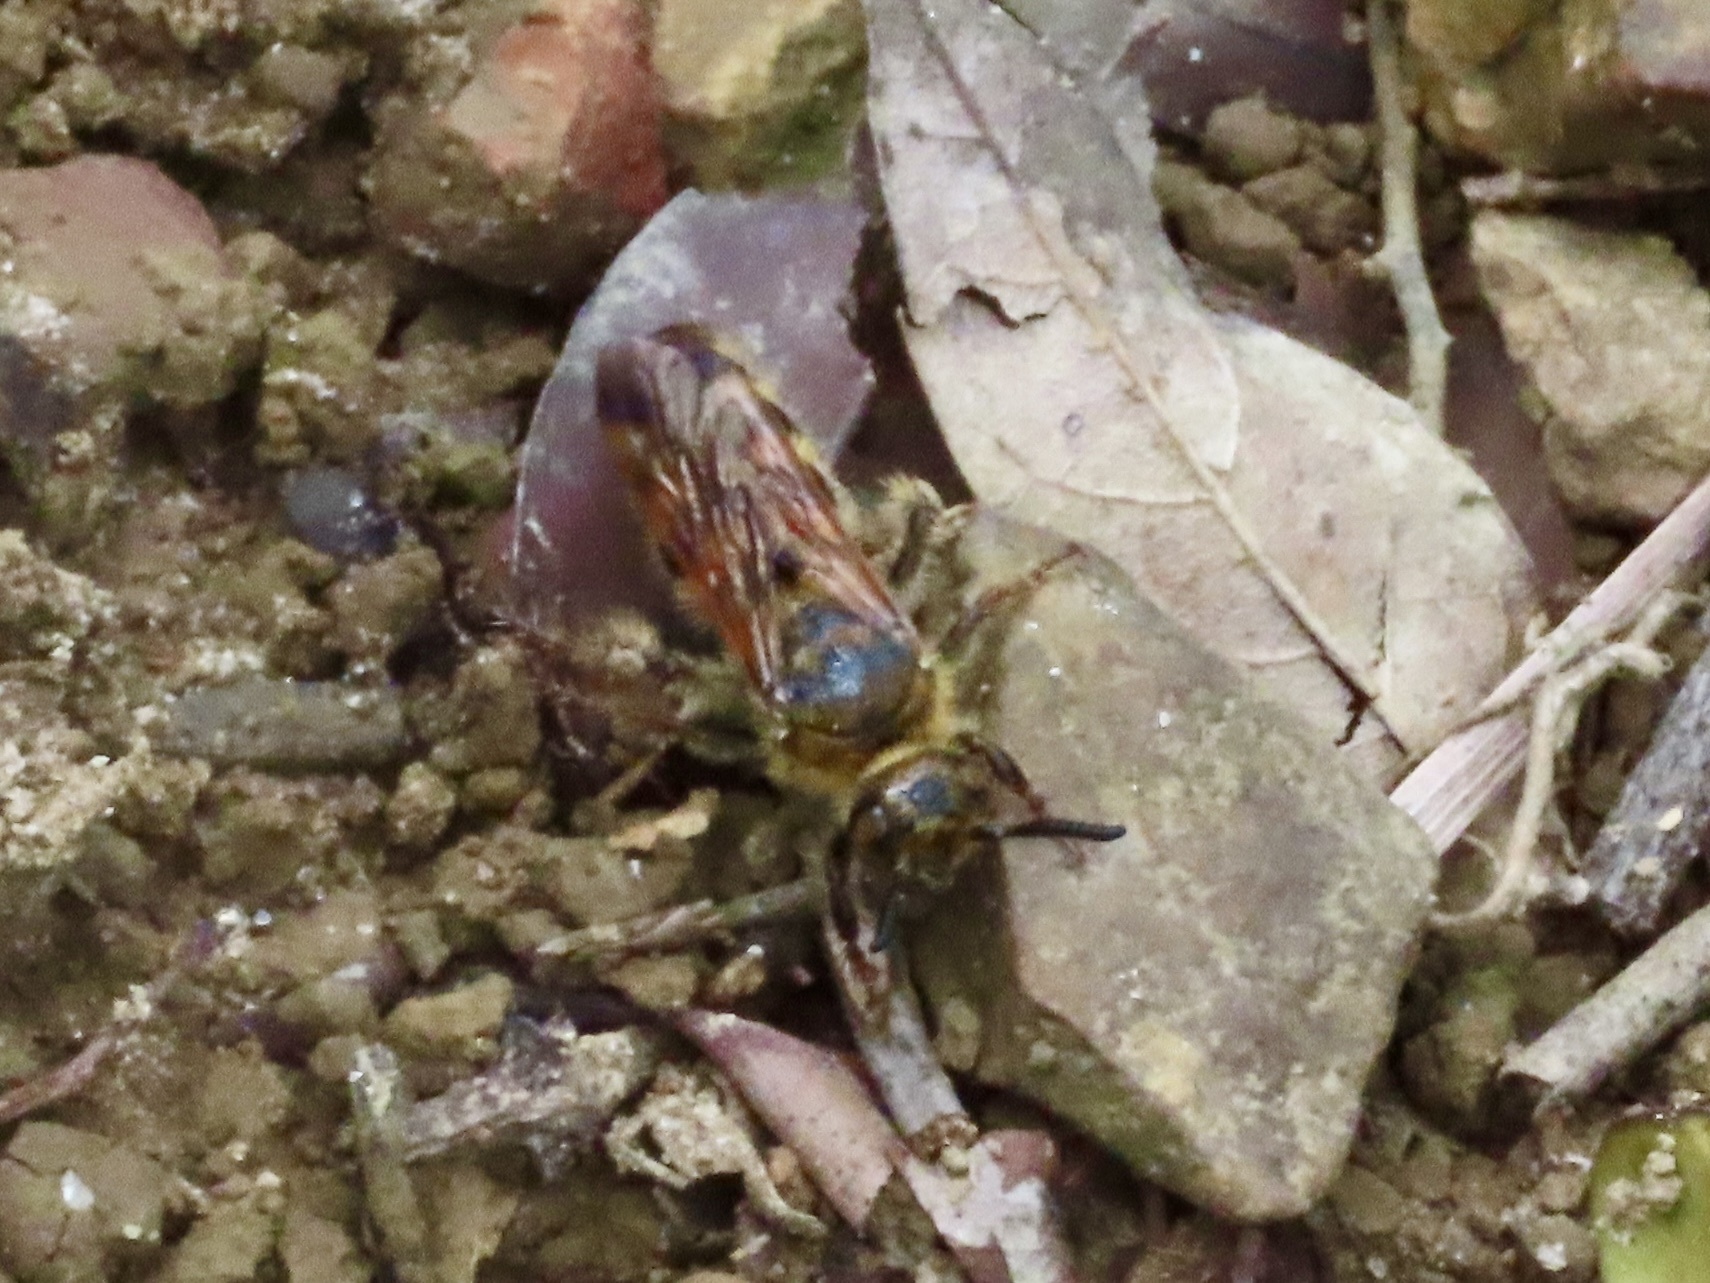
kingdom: Animalia
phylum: Arthropoda
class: Insecta
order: Hymenoptera
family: Scoliidae
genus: Campsomeris
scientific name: Campsomeris phalerata
